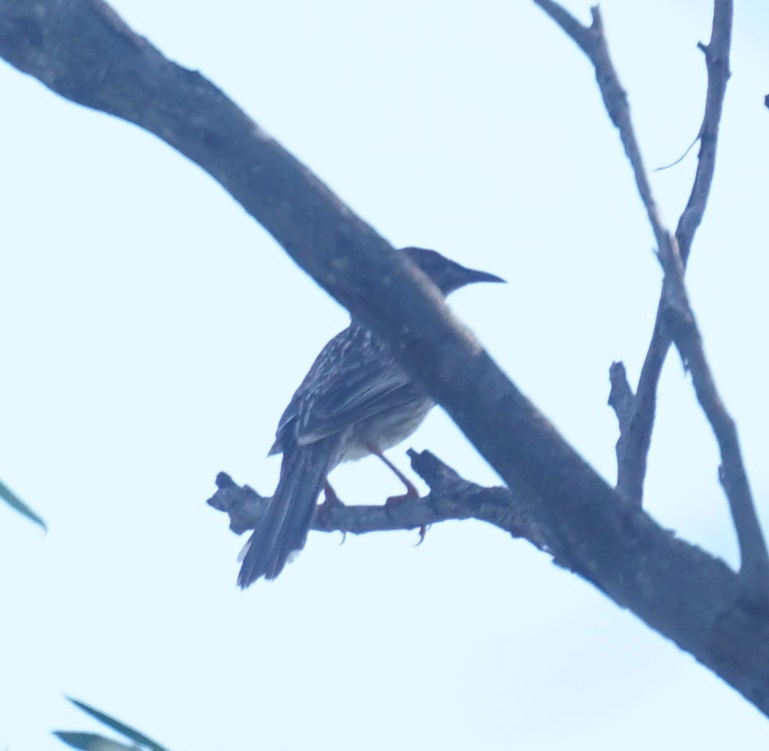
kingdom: Animalia
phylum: Chordata
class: Aves
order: Passeriformes
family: Meliphagidae
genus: Anthochaera
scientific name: Anthochaera carunculata
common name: Red wattlebird
